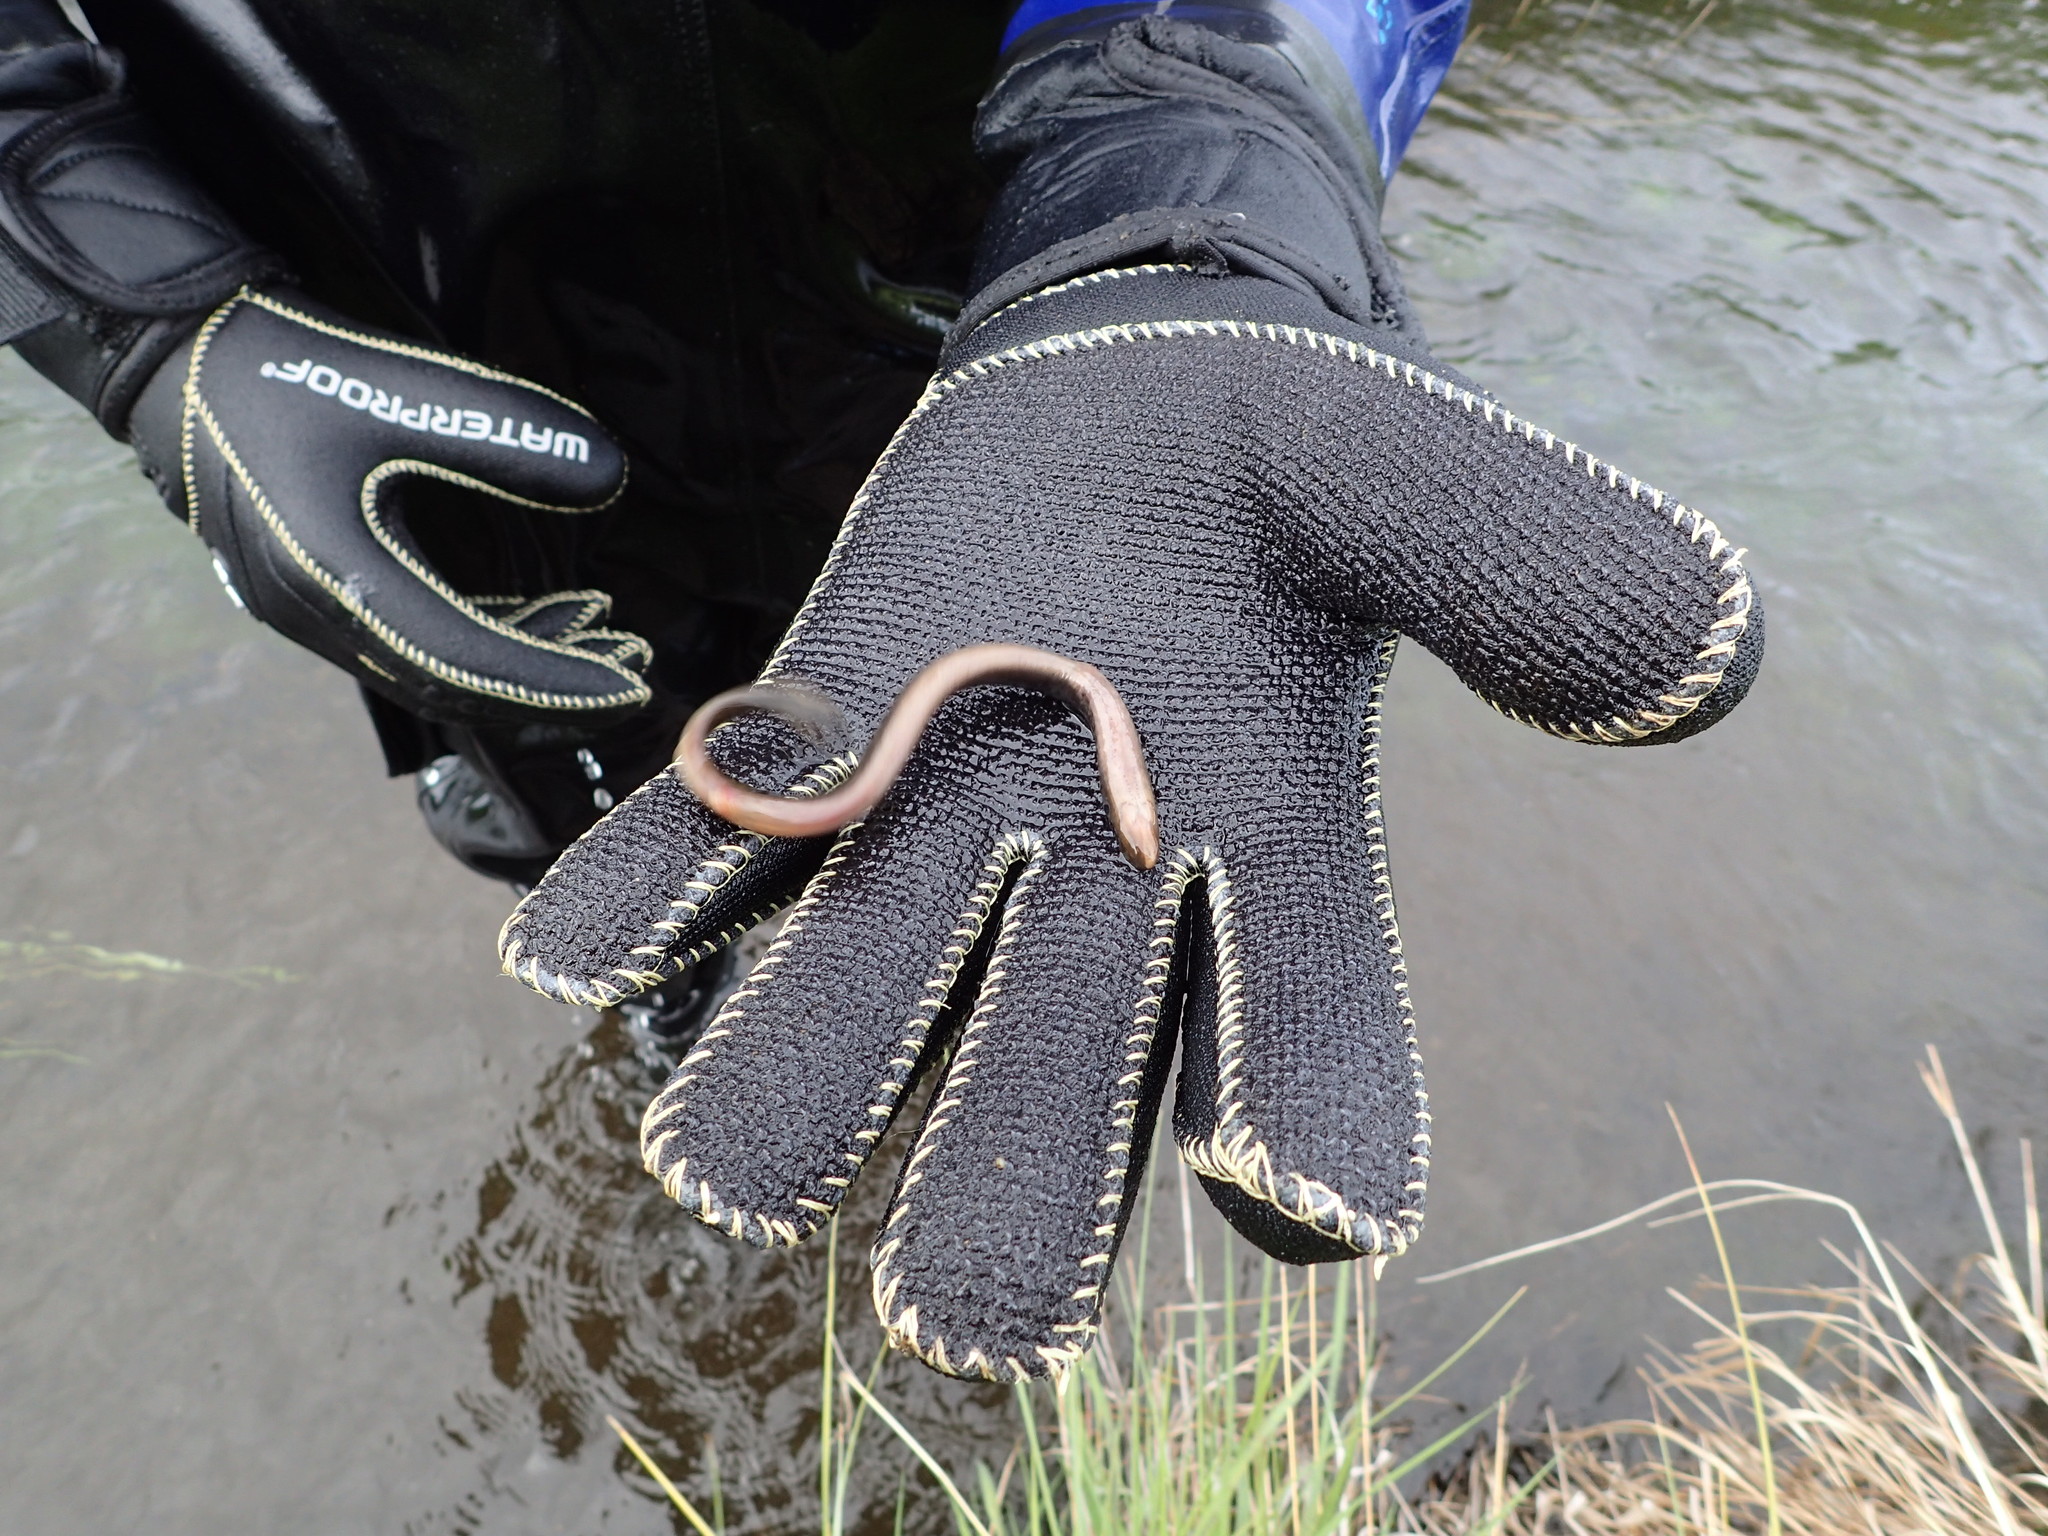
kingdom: Animalia
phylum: Chordata
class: Petromyzonti
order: Petromyzontiformes
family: Petromyzontidae
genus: Lethenteron
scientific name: Lethenteron camtschaticum
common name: Arctic lamprey
